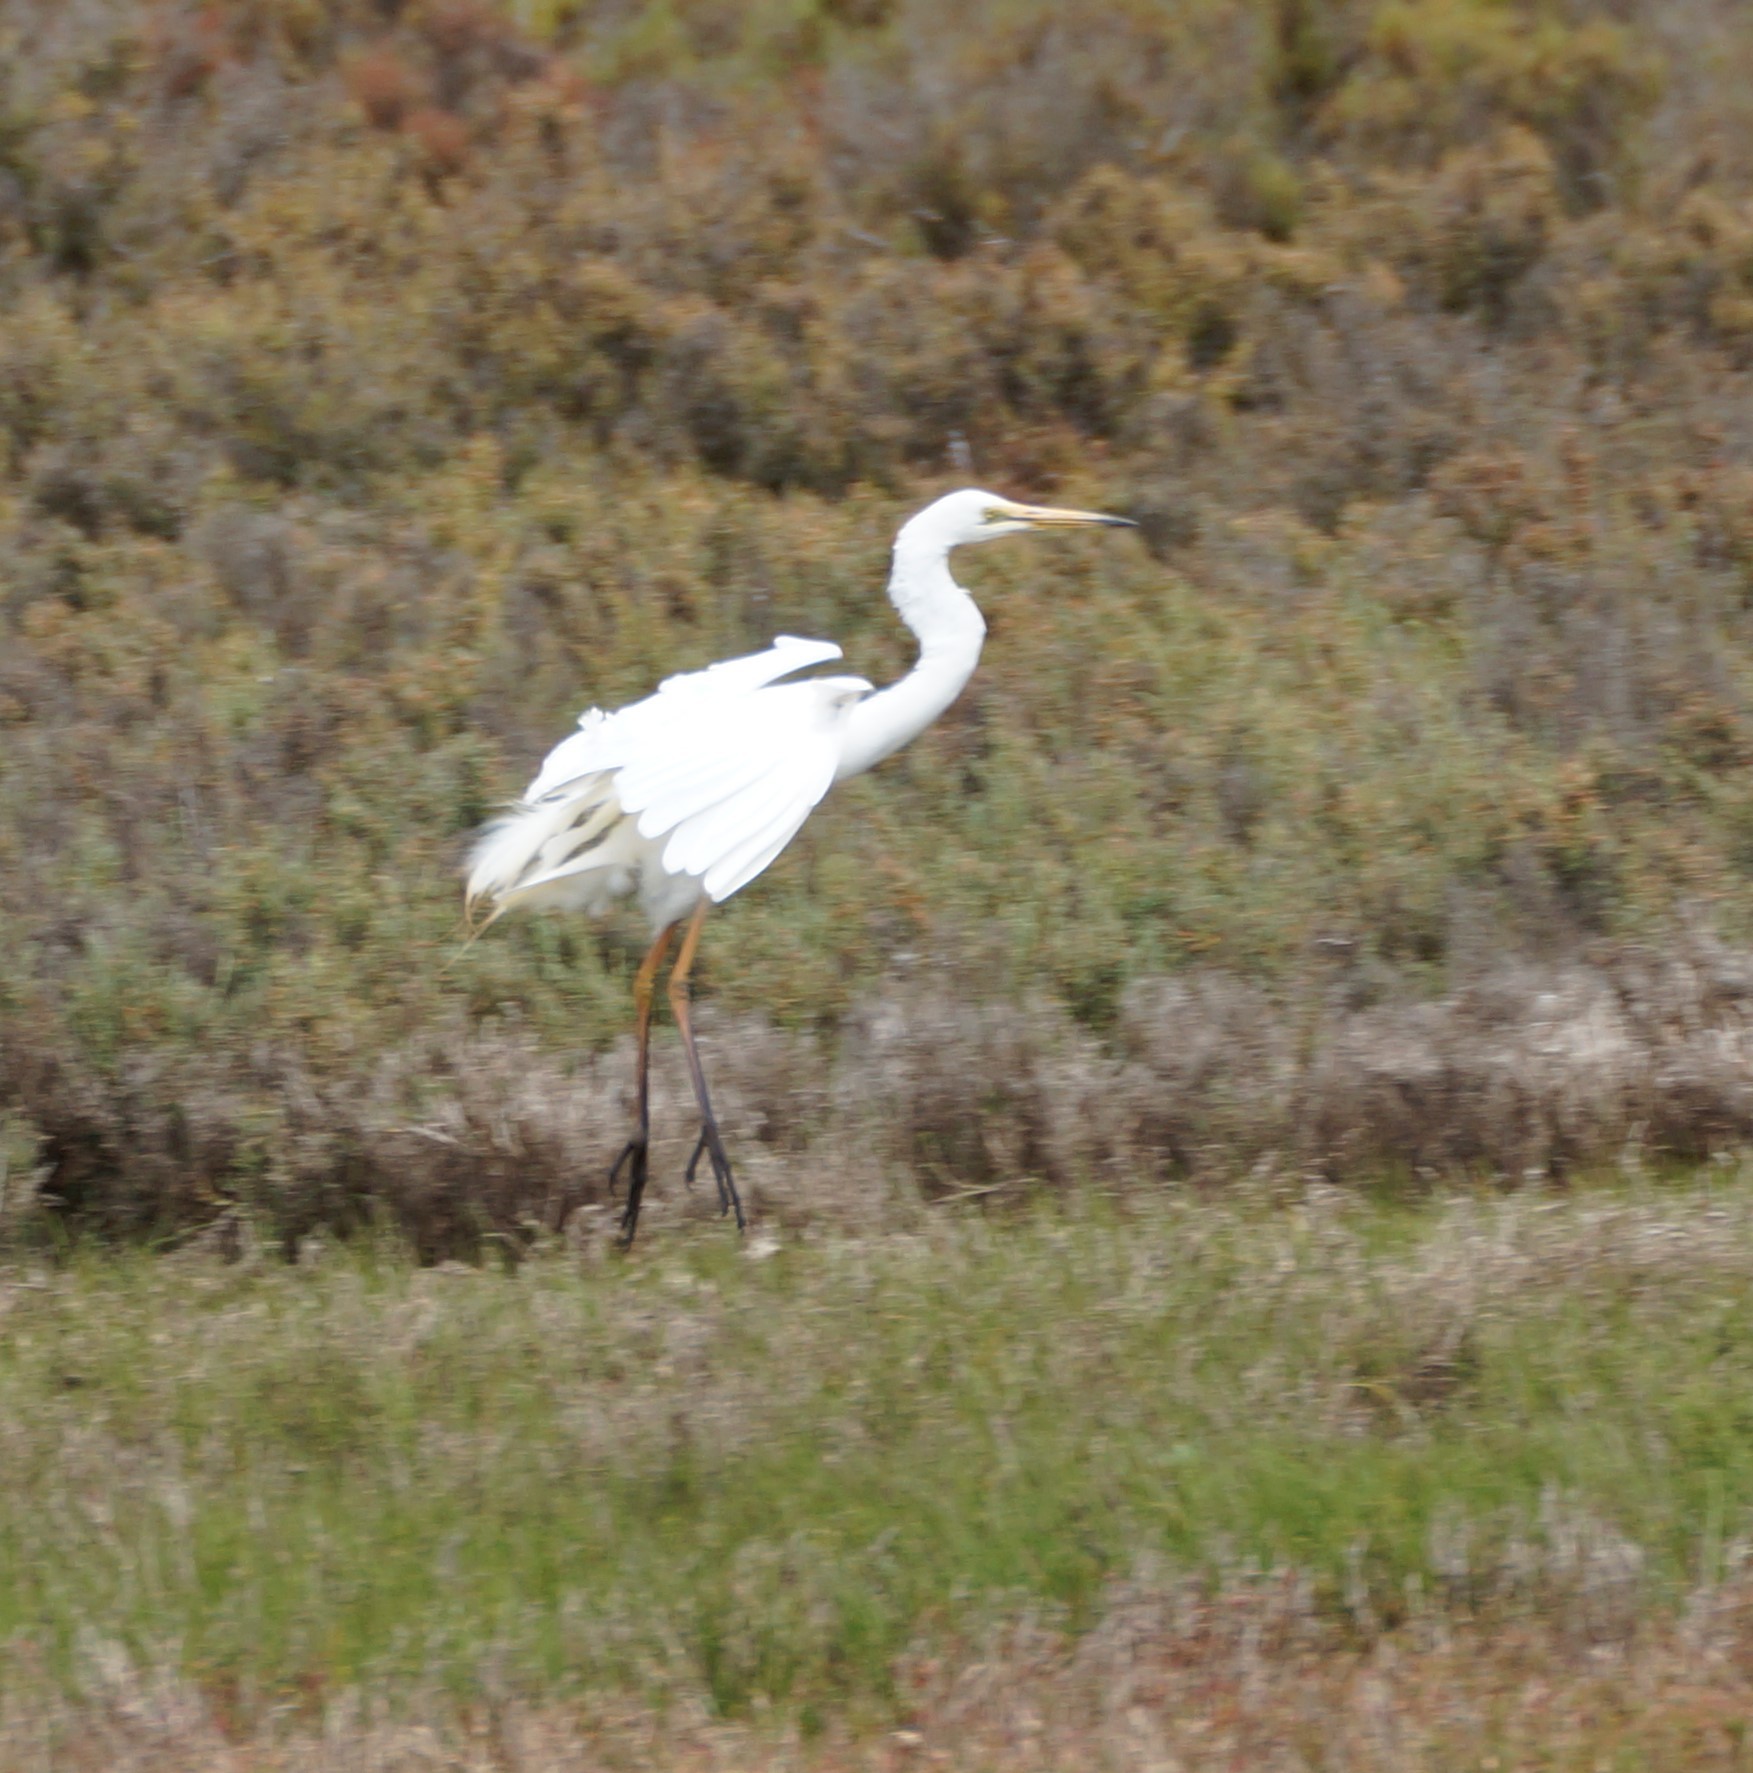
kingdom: Animalia
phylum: Chordata
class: Aves
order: Pelecaniformes
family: Ardeidae
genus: Ardea
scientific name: Ardea alba
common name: Great egret
